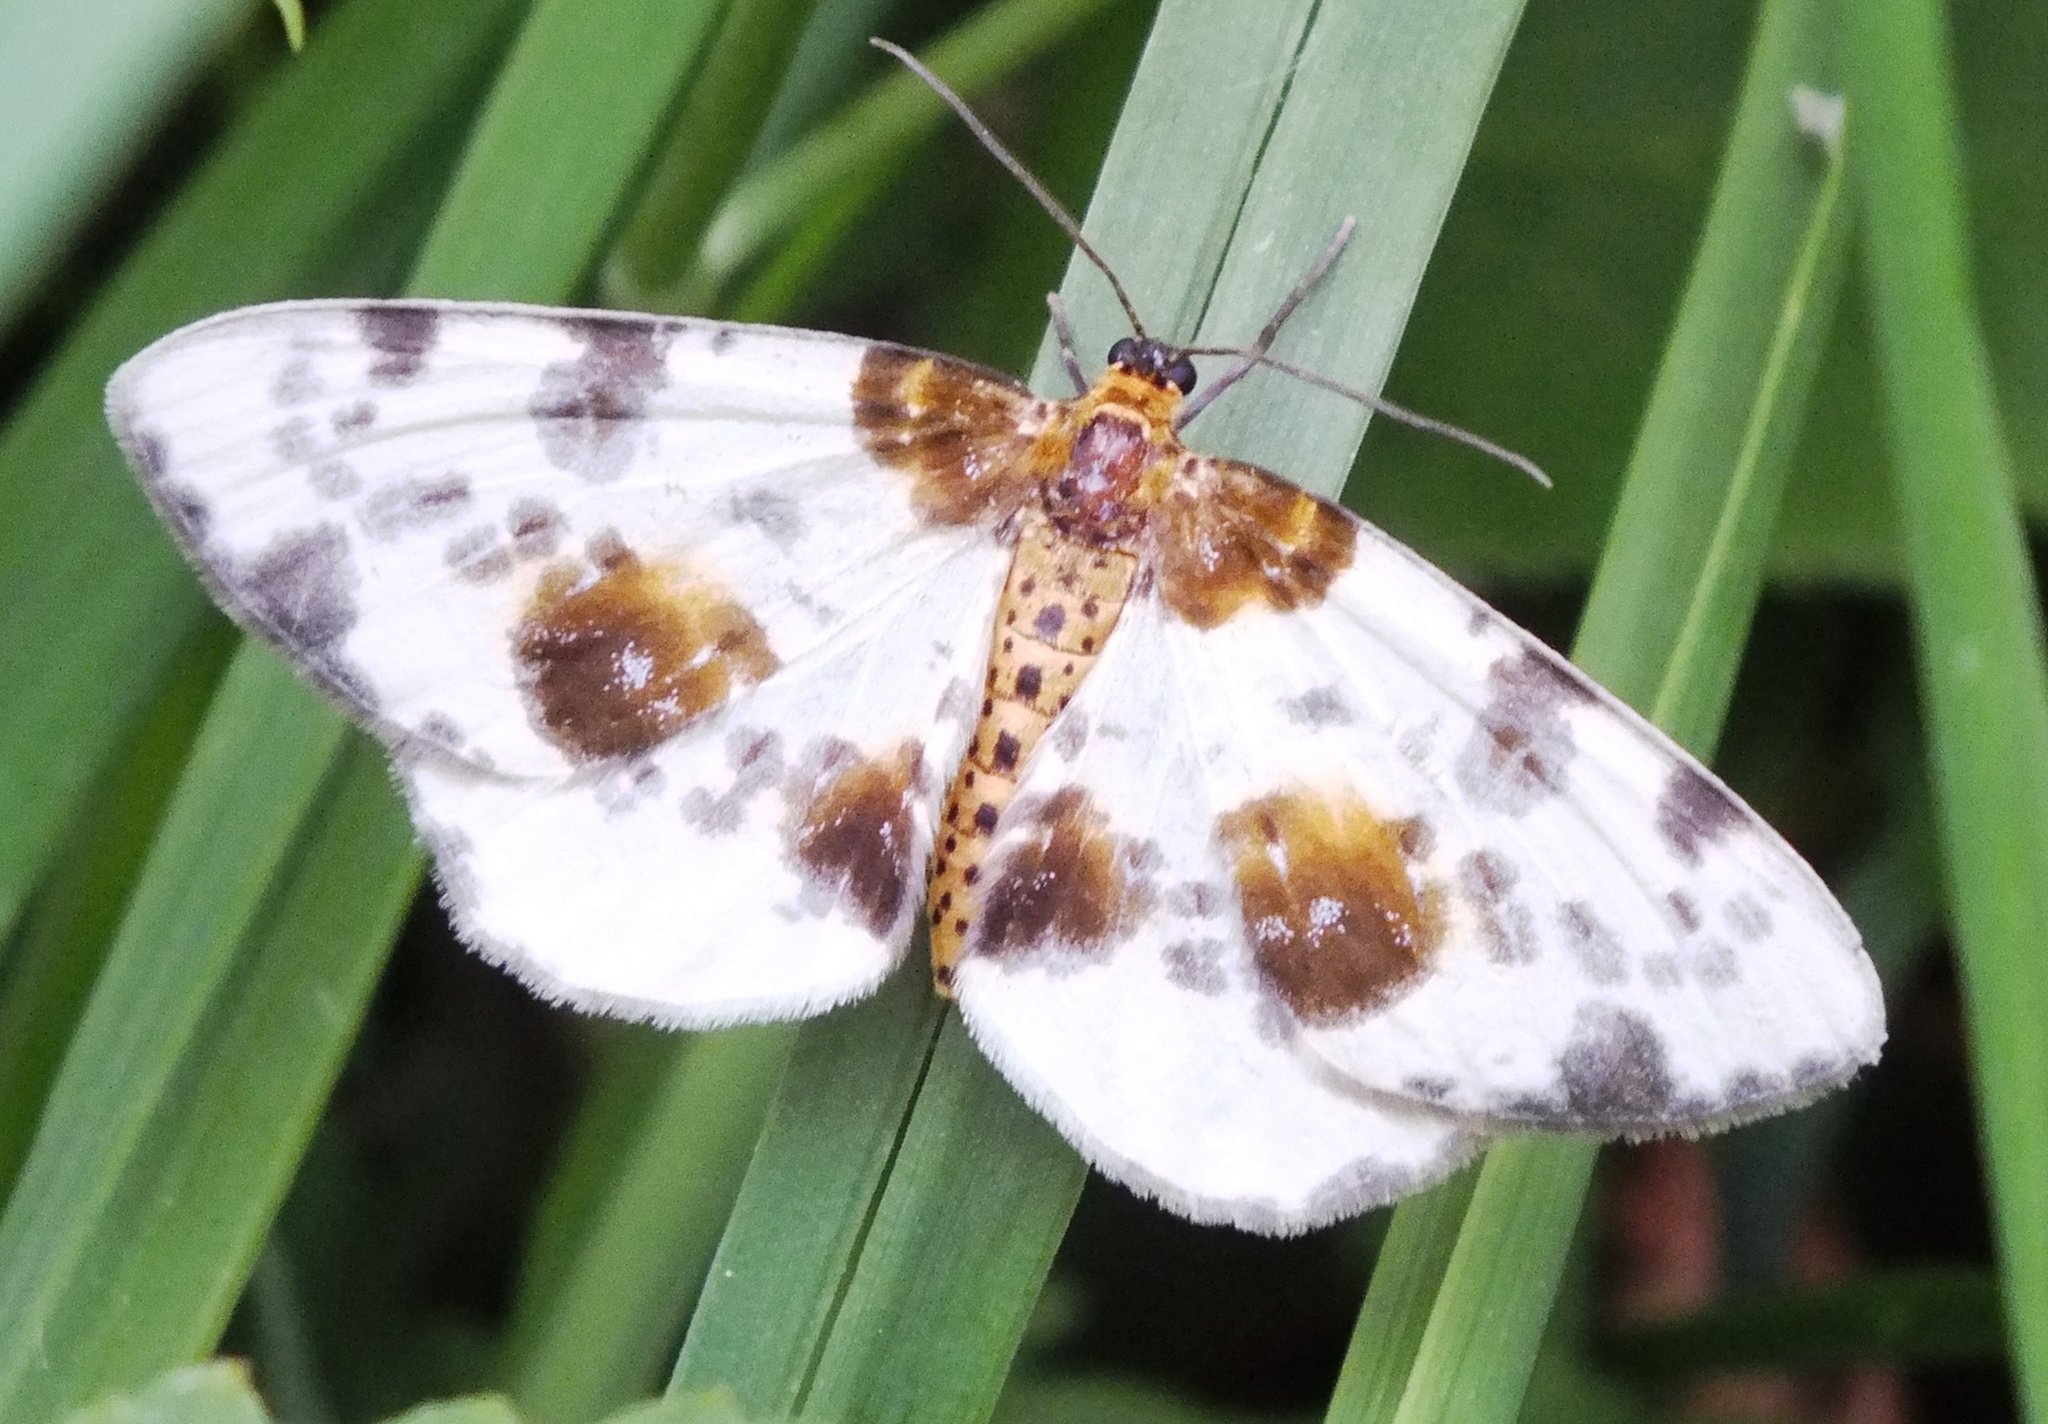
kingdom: Animalia
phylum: Arthropoda
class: Insecta
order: Lepidoptera
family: Geometridae
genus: Abraxas
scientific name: Abraxas sylvata
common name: Clouded magpie
